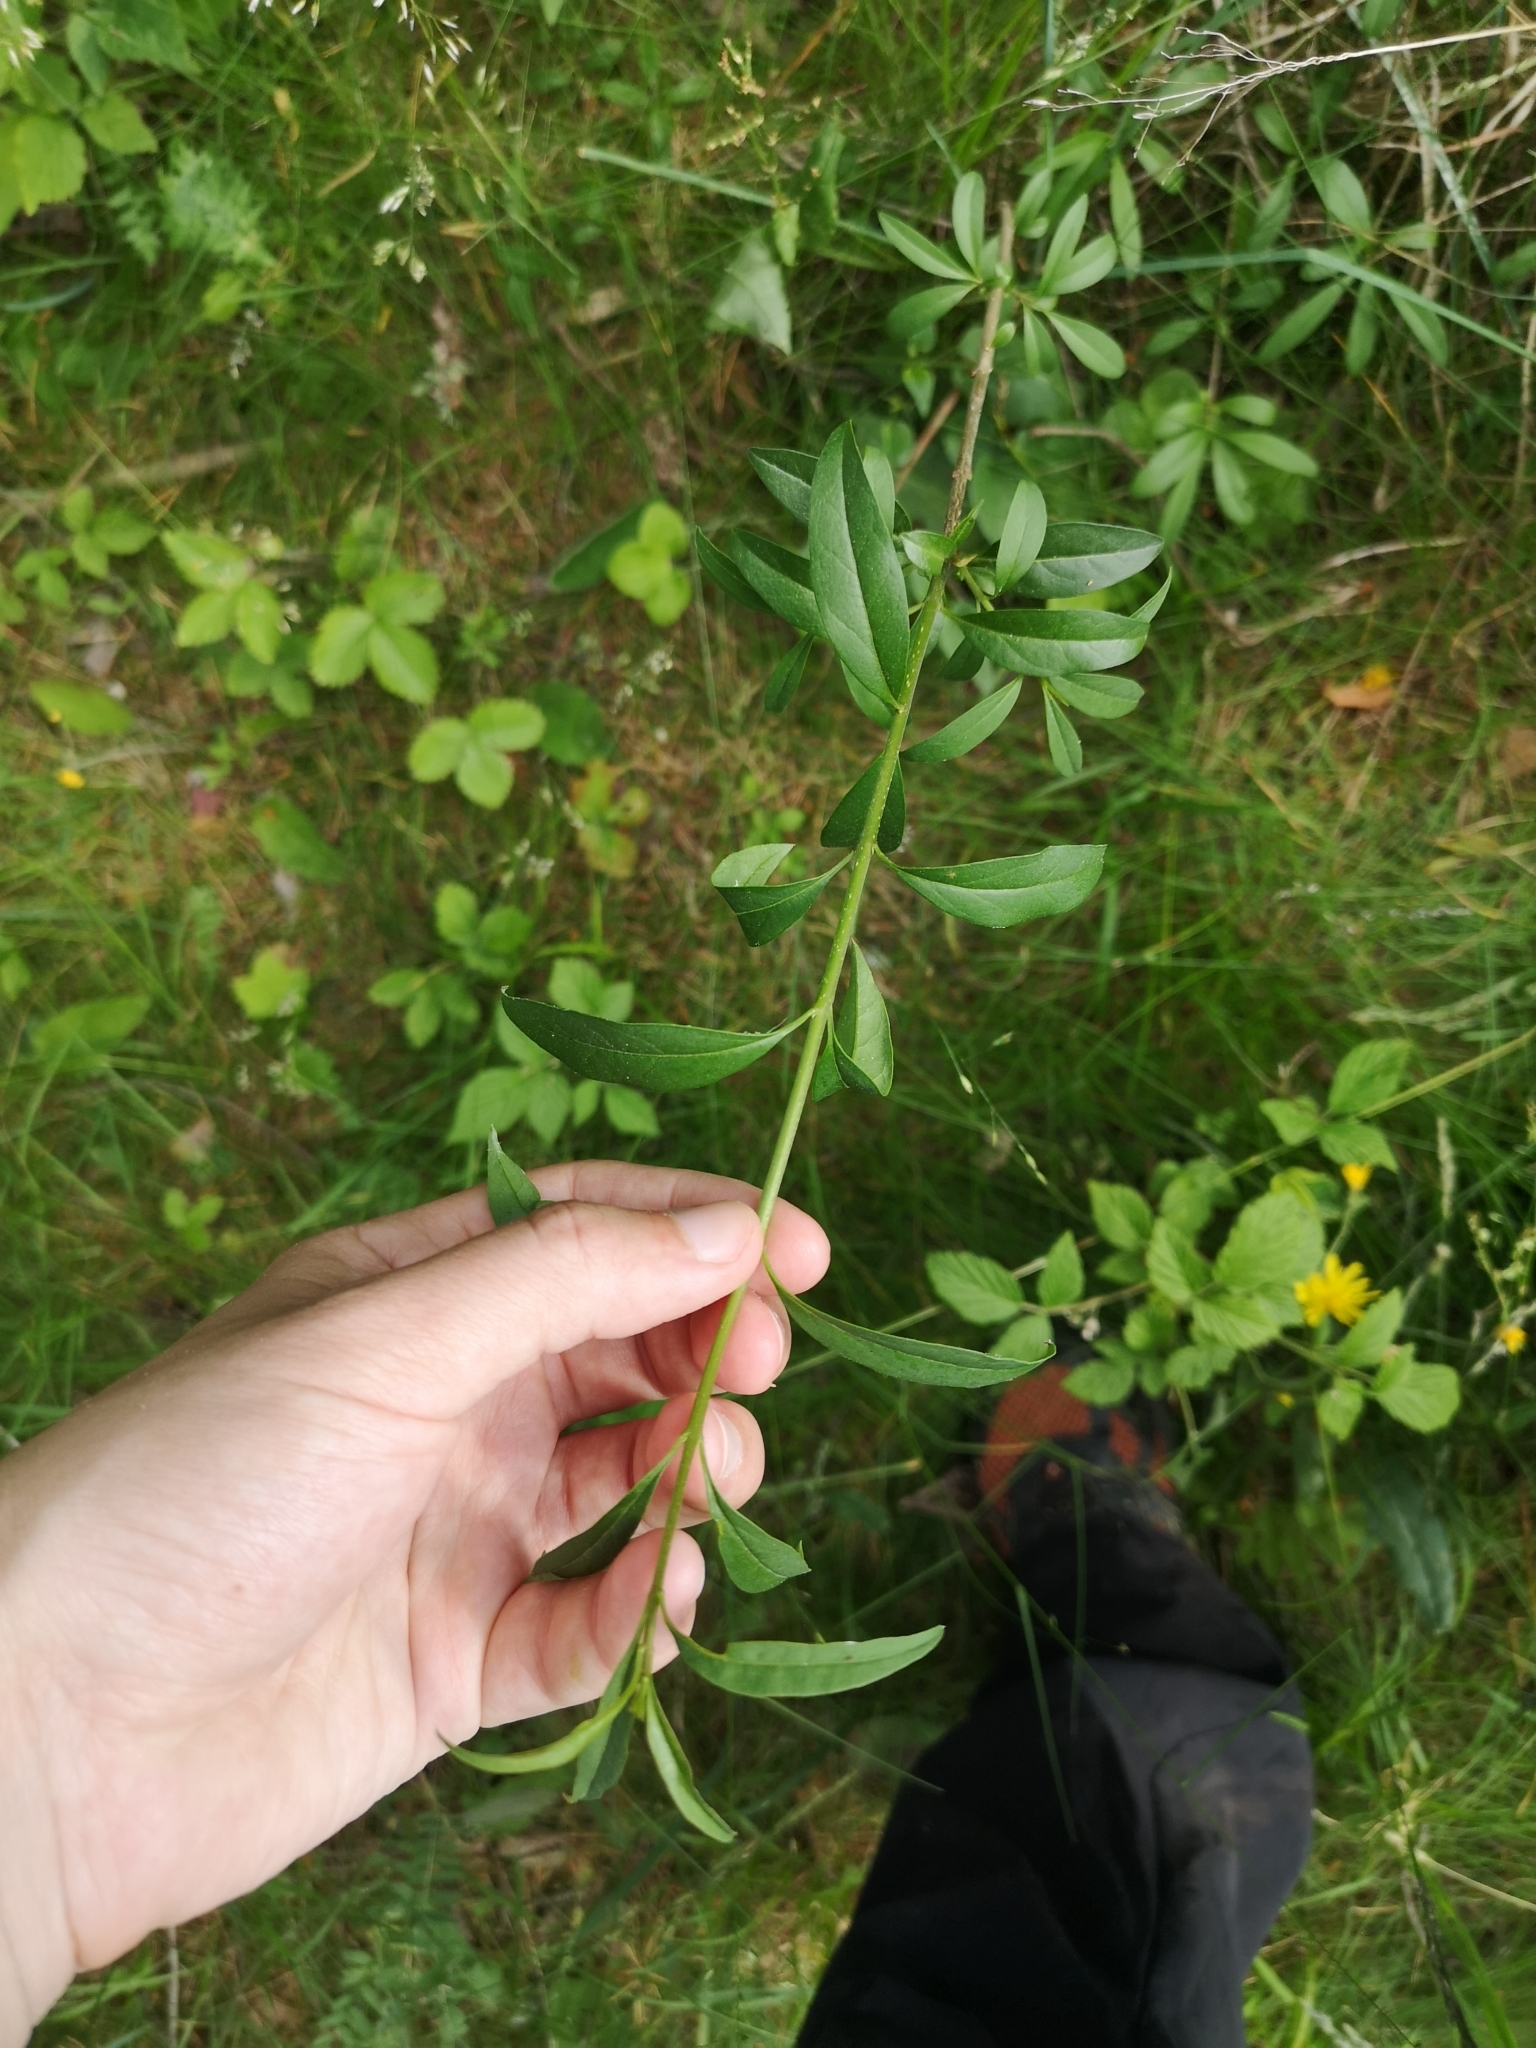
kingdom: Plantae
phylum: Tracheophyta
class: Magnoliopsida
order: Lamiales
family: Oleaceae
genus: Ligustrum
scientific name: Ligustrum vulgare
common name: Wild privet
